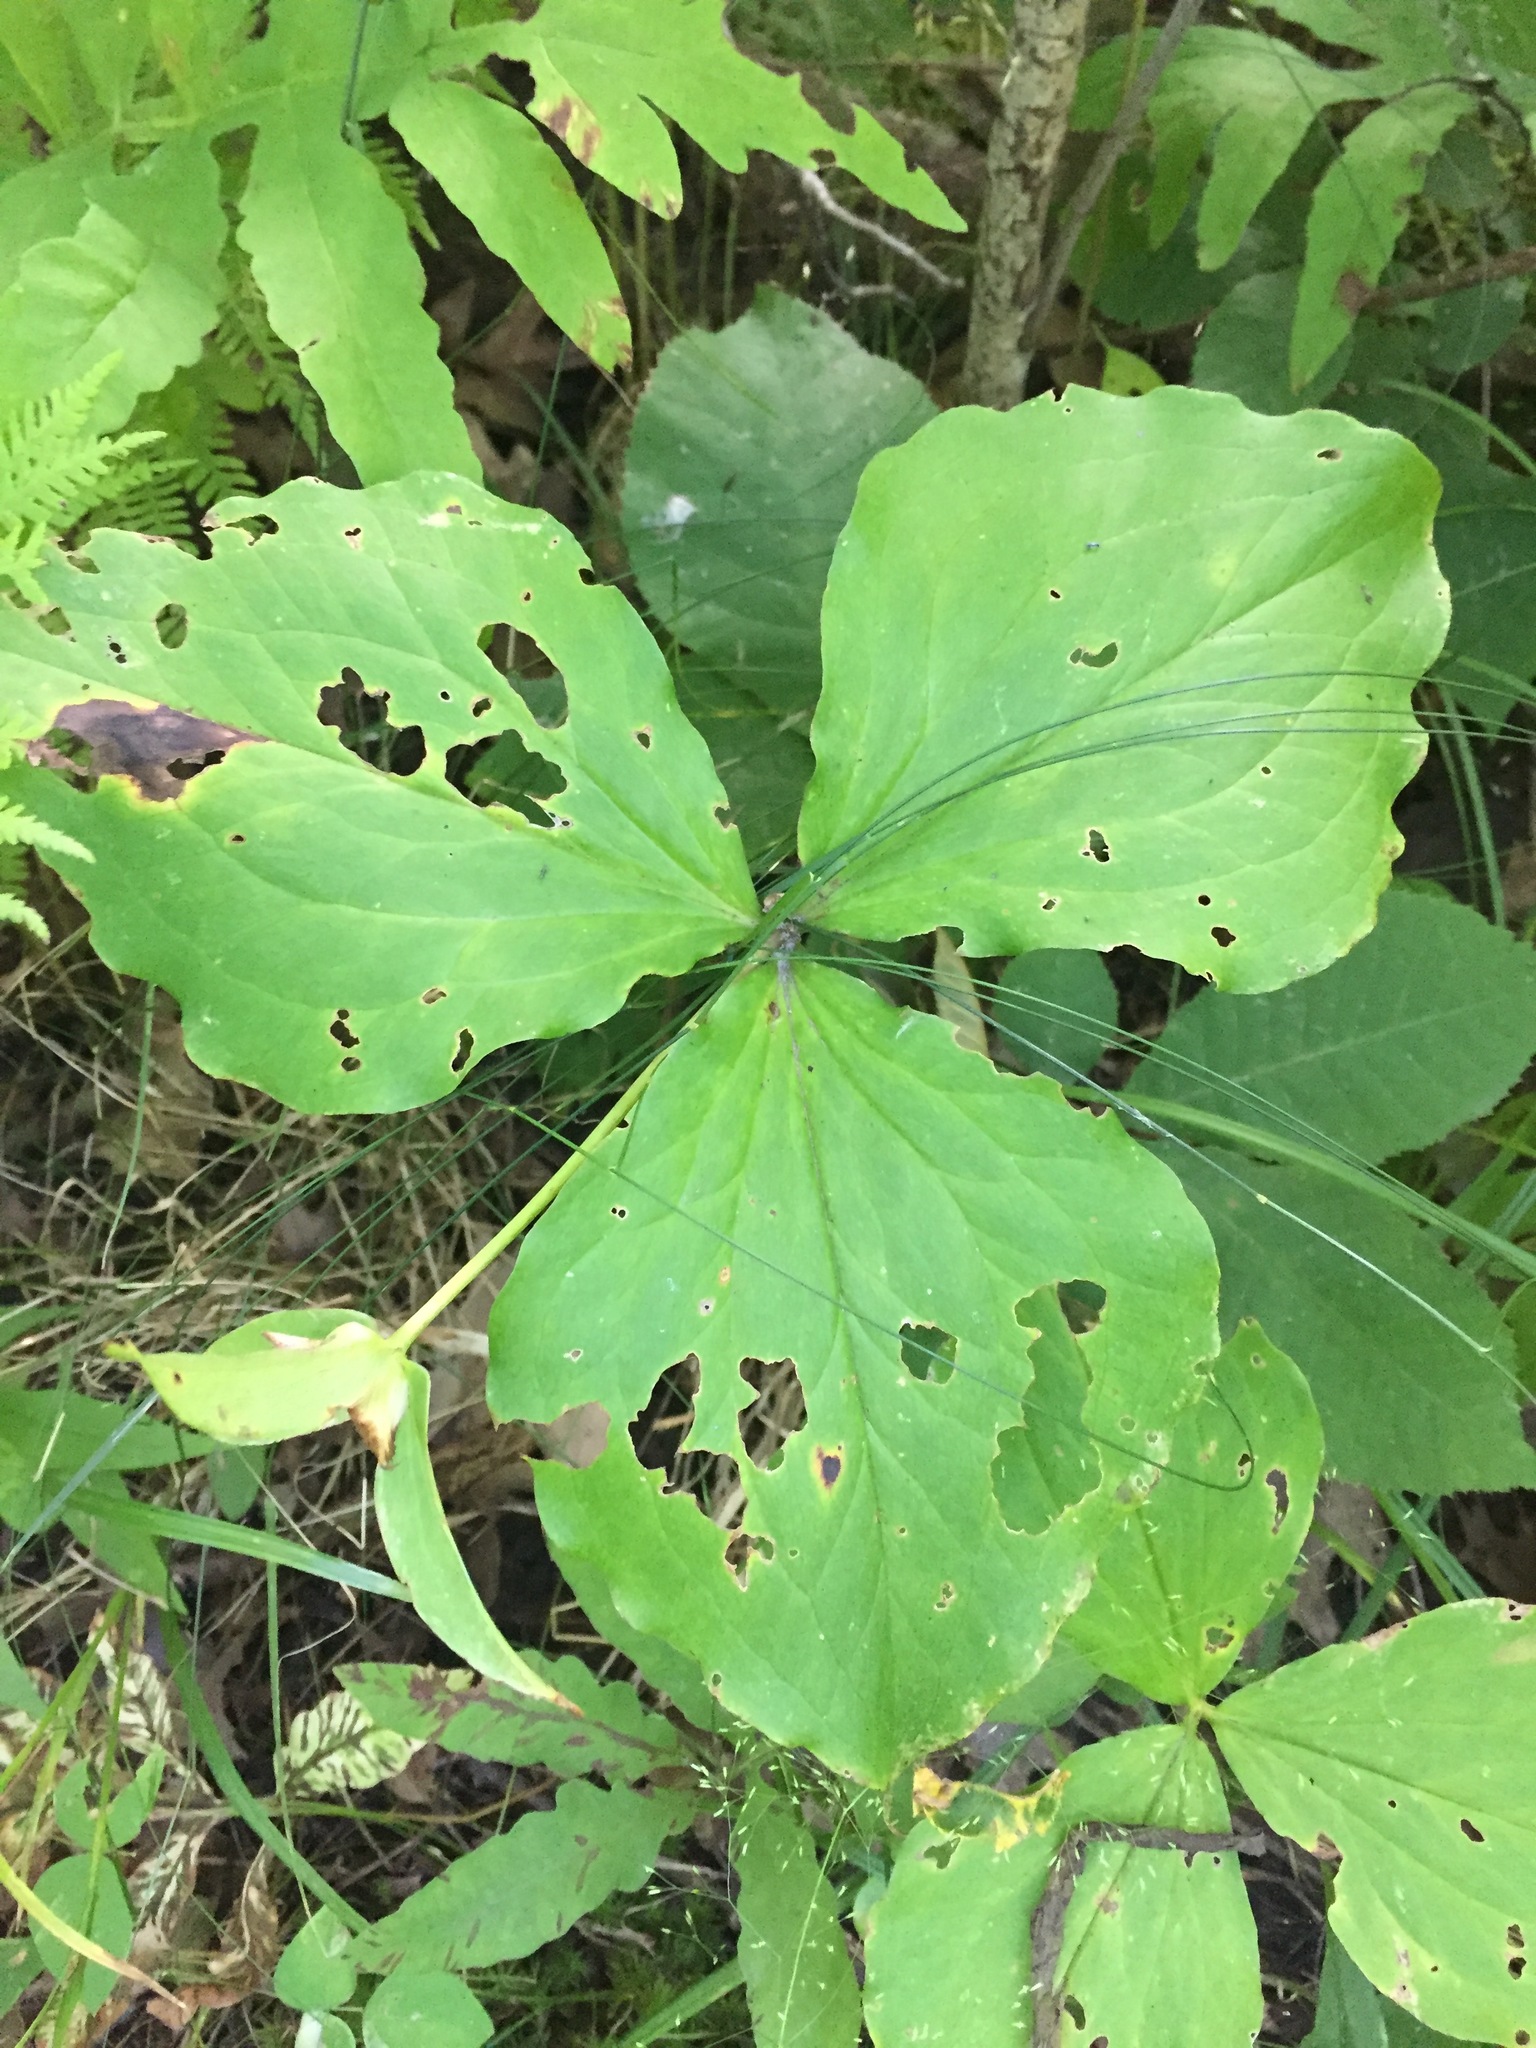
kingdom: Plantae
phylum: Tracheophyta
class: Liliopsida
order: Liliales
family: Melanthiaceae
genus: Trillium
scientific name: Trillium grandiflorum
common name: Great white trillium
